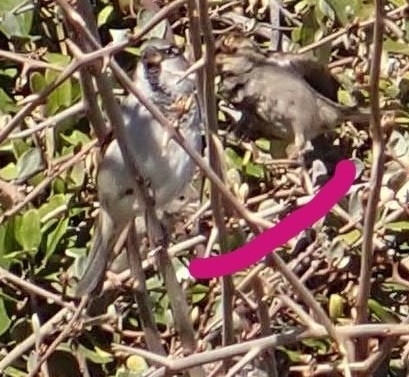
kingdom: Animalia
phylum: Chordata
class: Aves
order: Passeriformes
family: Passeridae
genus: Passer
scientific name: Passer domesticus
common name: House sparrow
